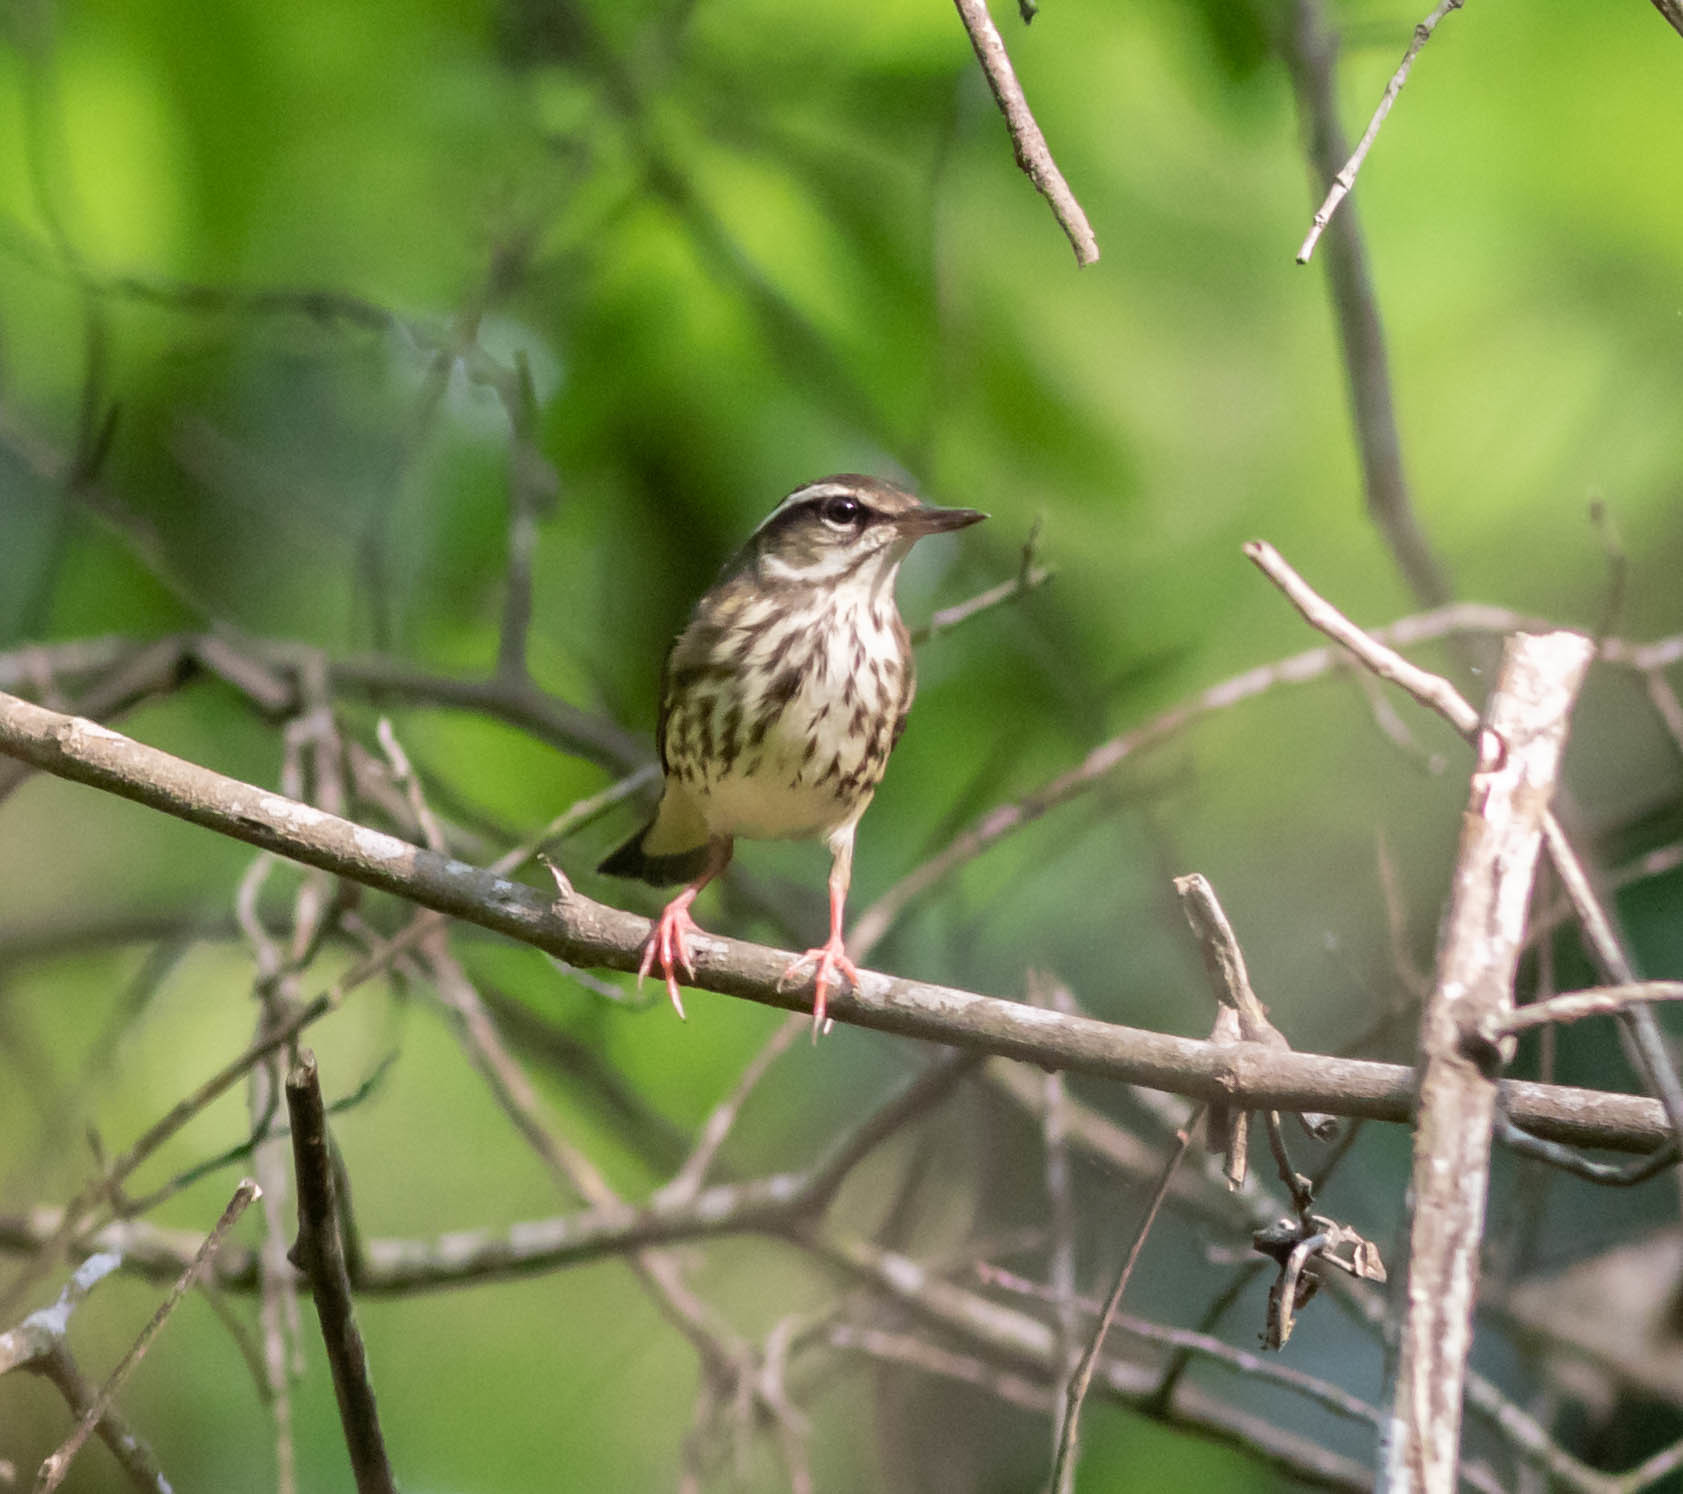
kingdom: Animalia
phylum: Chordata
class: Aves
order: Passeriformes
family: Parulidae
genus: Parkesia
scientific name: Parkesia motacilla
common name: Louisiana waterthrush
